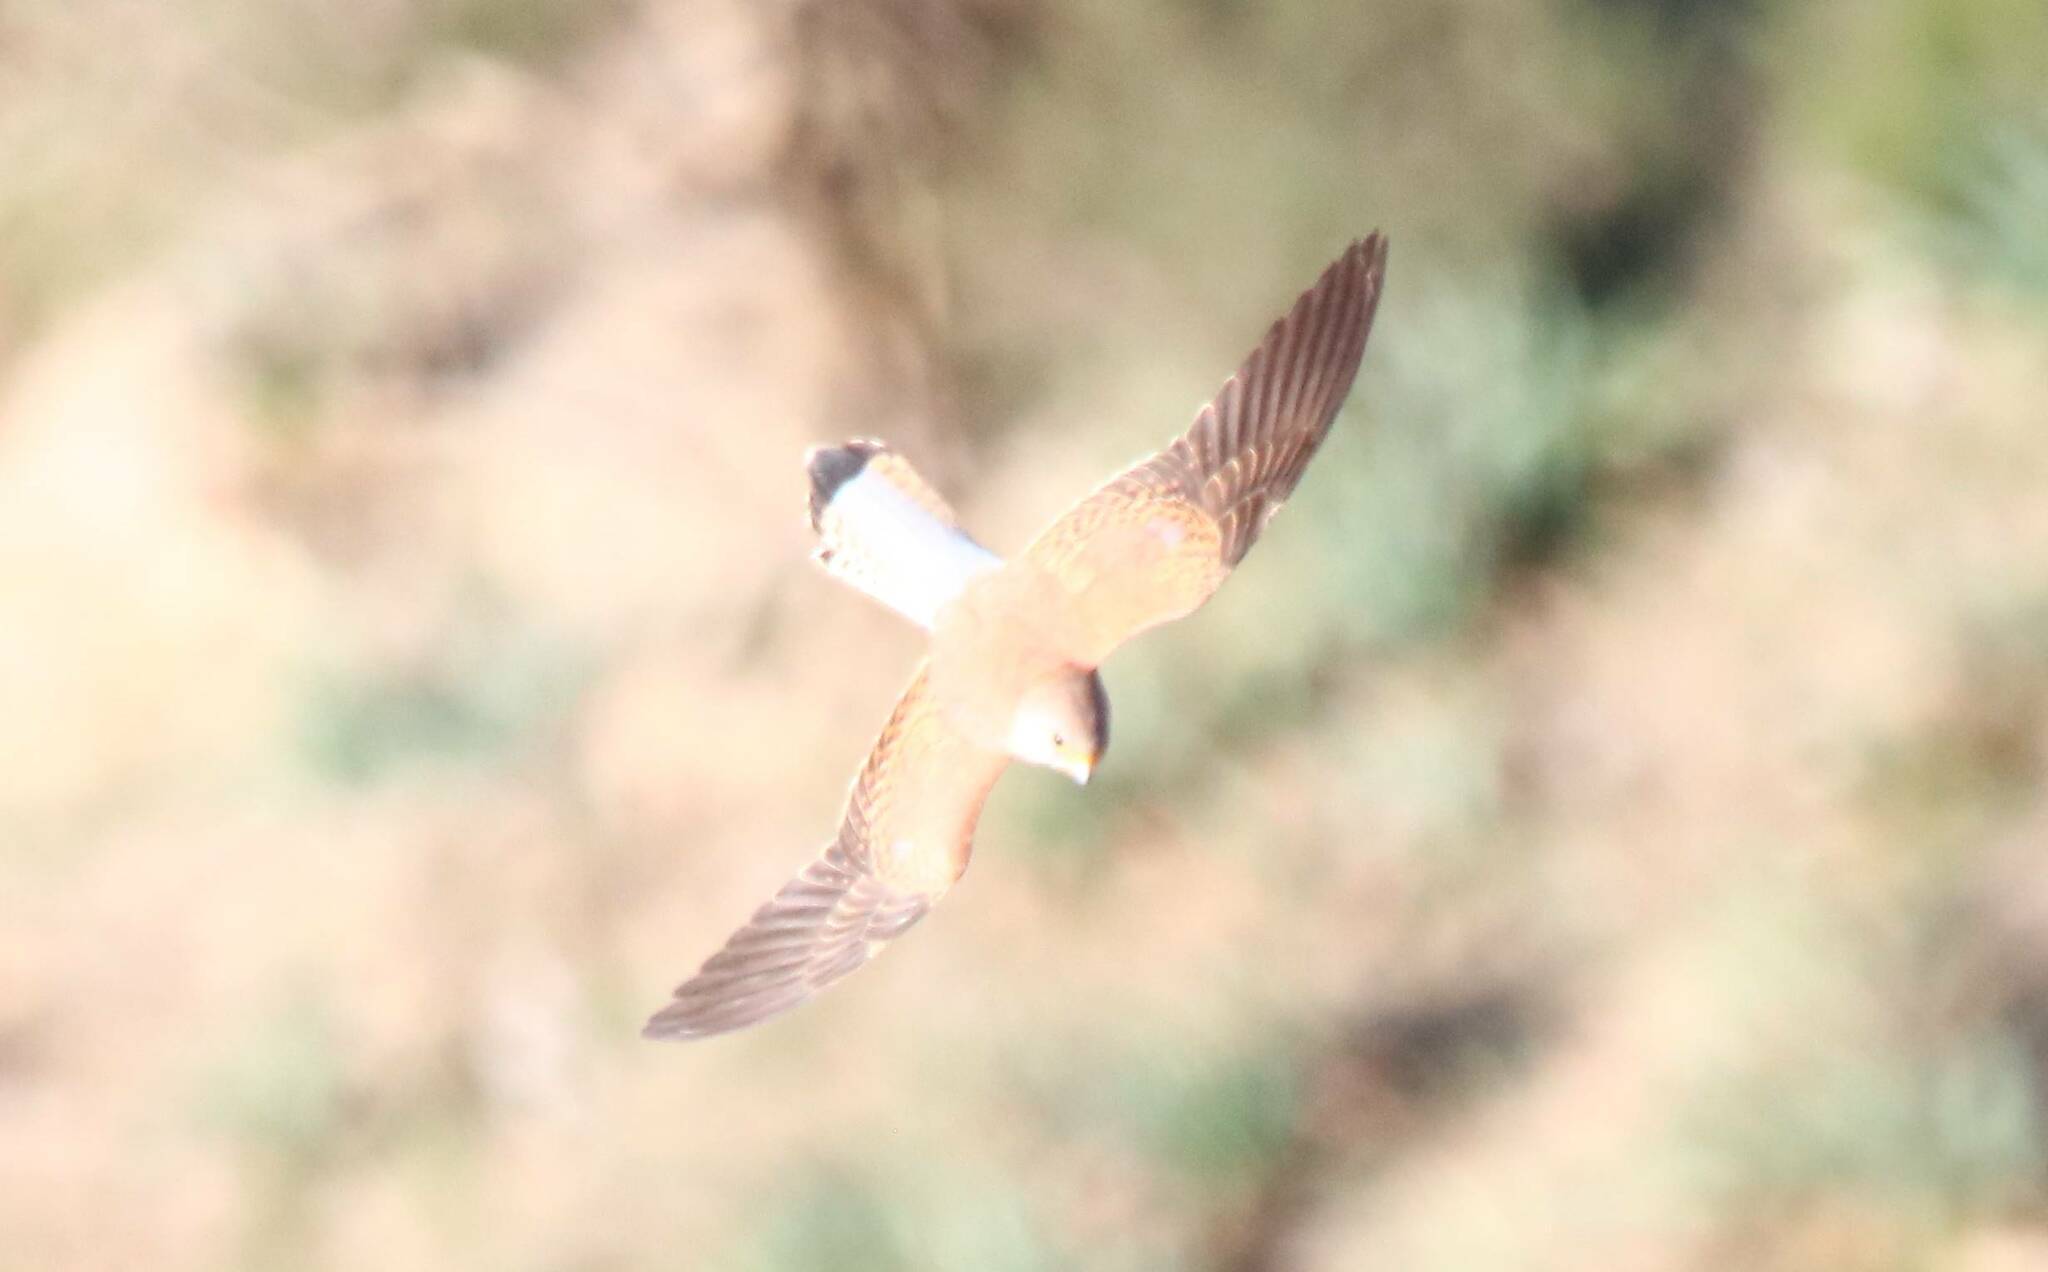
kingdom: Animalia
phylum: Chordata
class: Aves
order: Falconiformes
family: Falconidae
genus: Falco
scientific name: Falco naumanni
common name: Lesser kestrel
